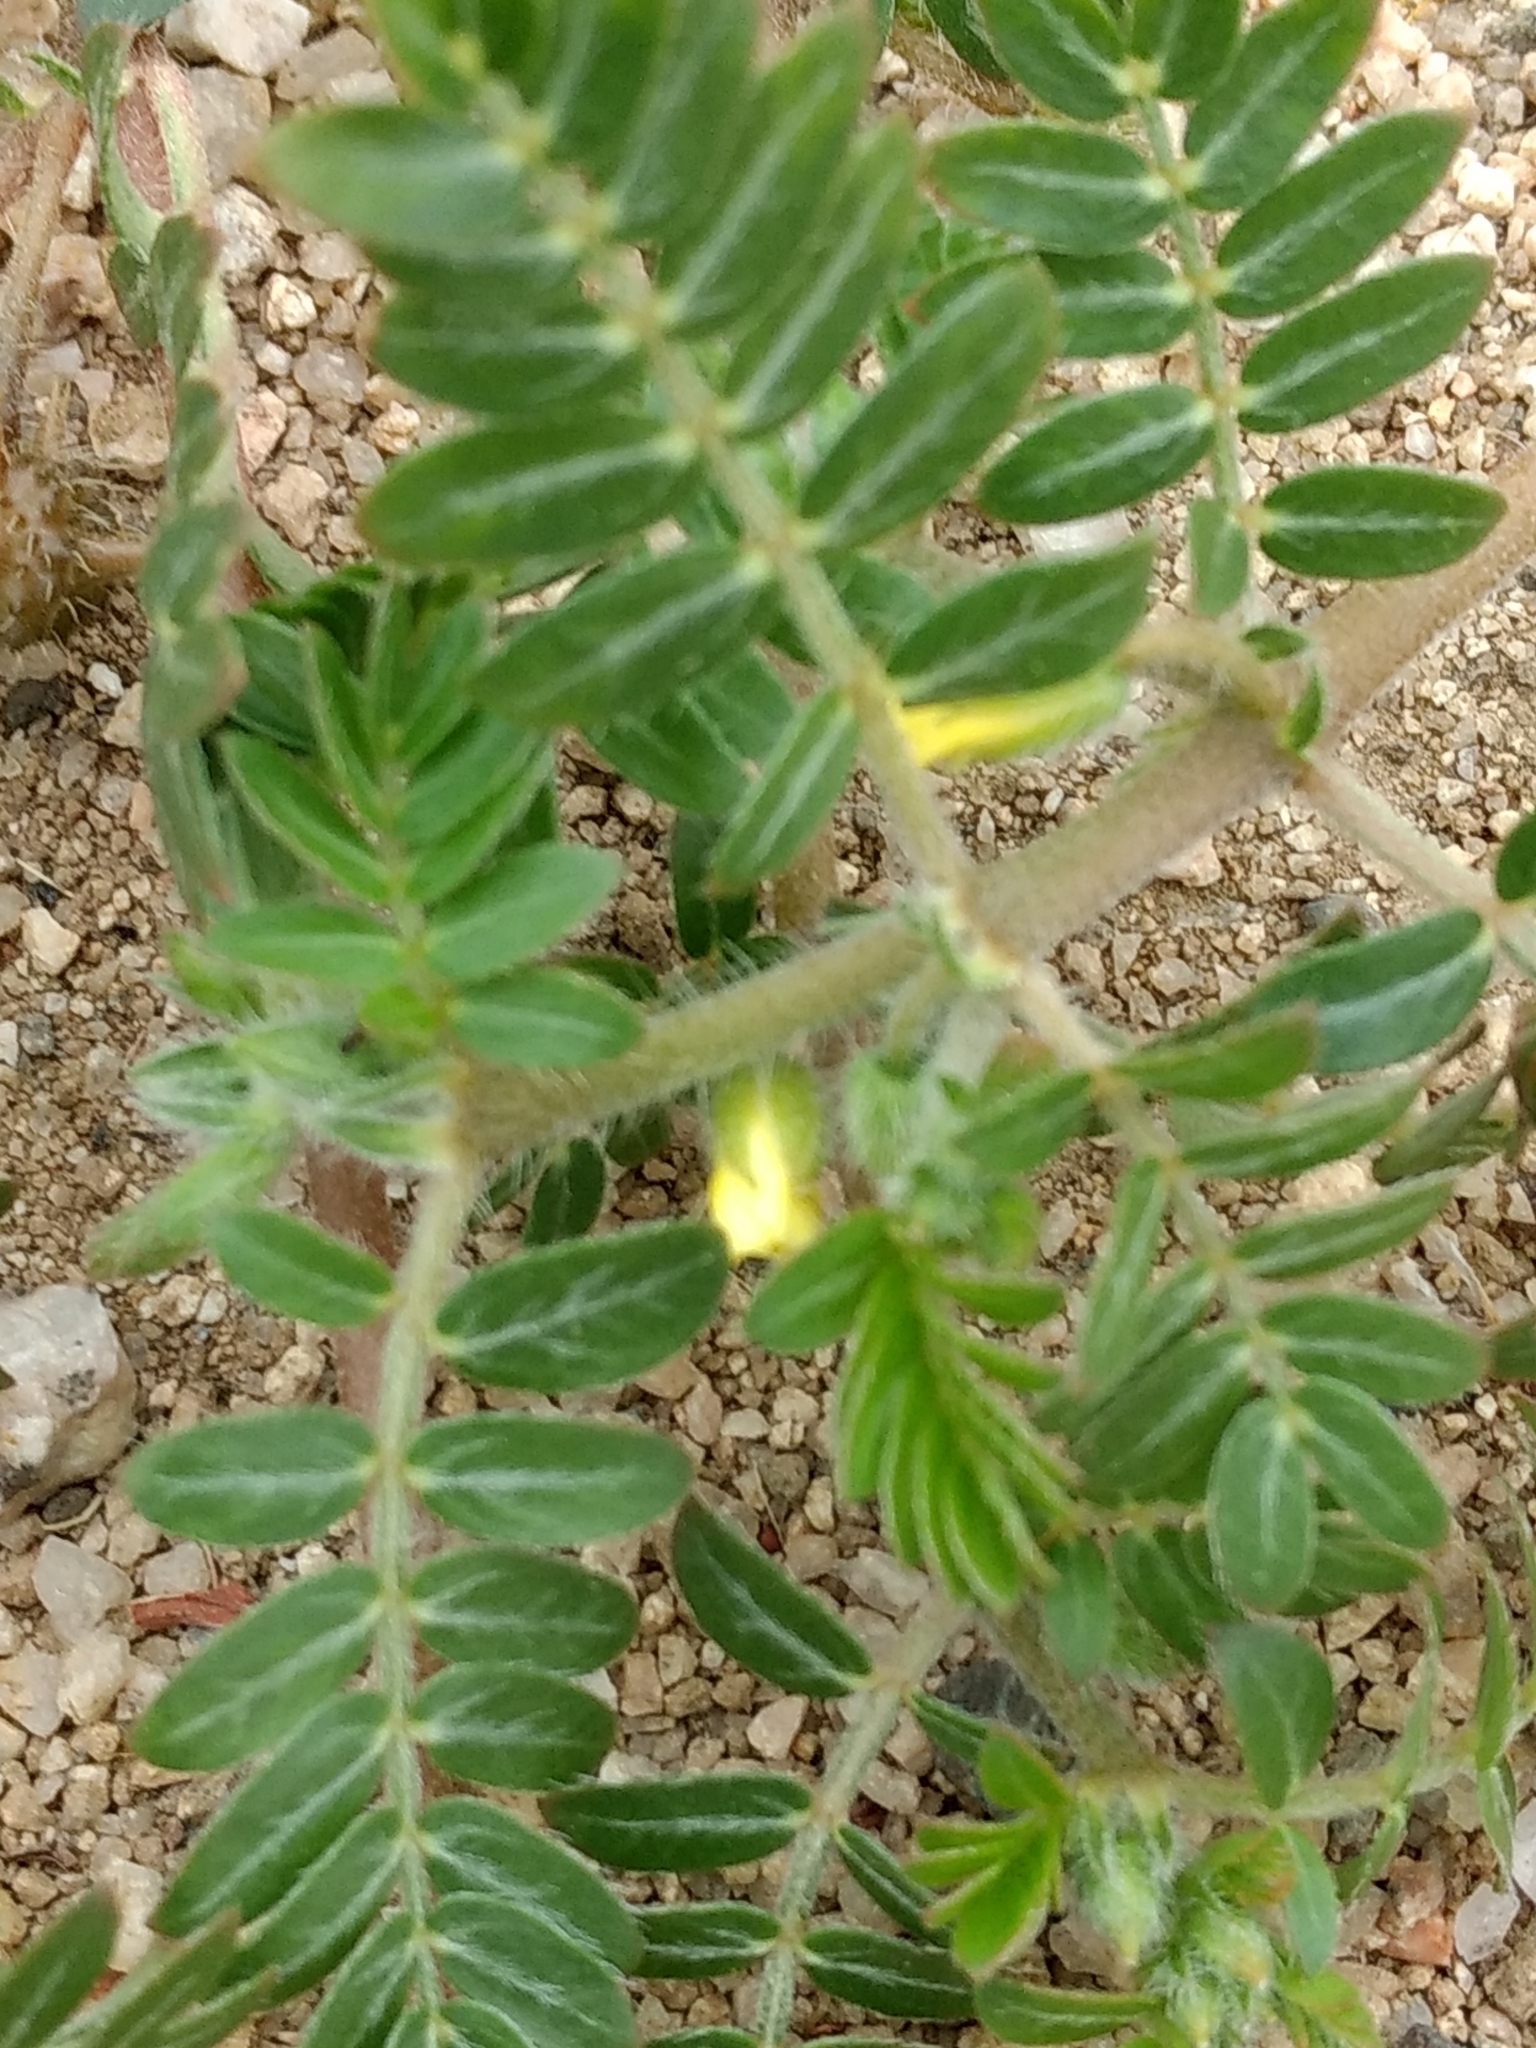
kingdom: Plantae
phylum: Tracheophyta
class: Magnoliopsida
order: Zygophyllales
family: Zygophyllaceae
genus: Tribulus
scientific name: Tribulus terrestris
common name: Puncturevine
